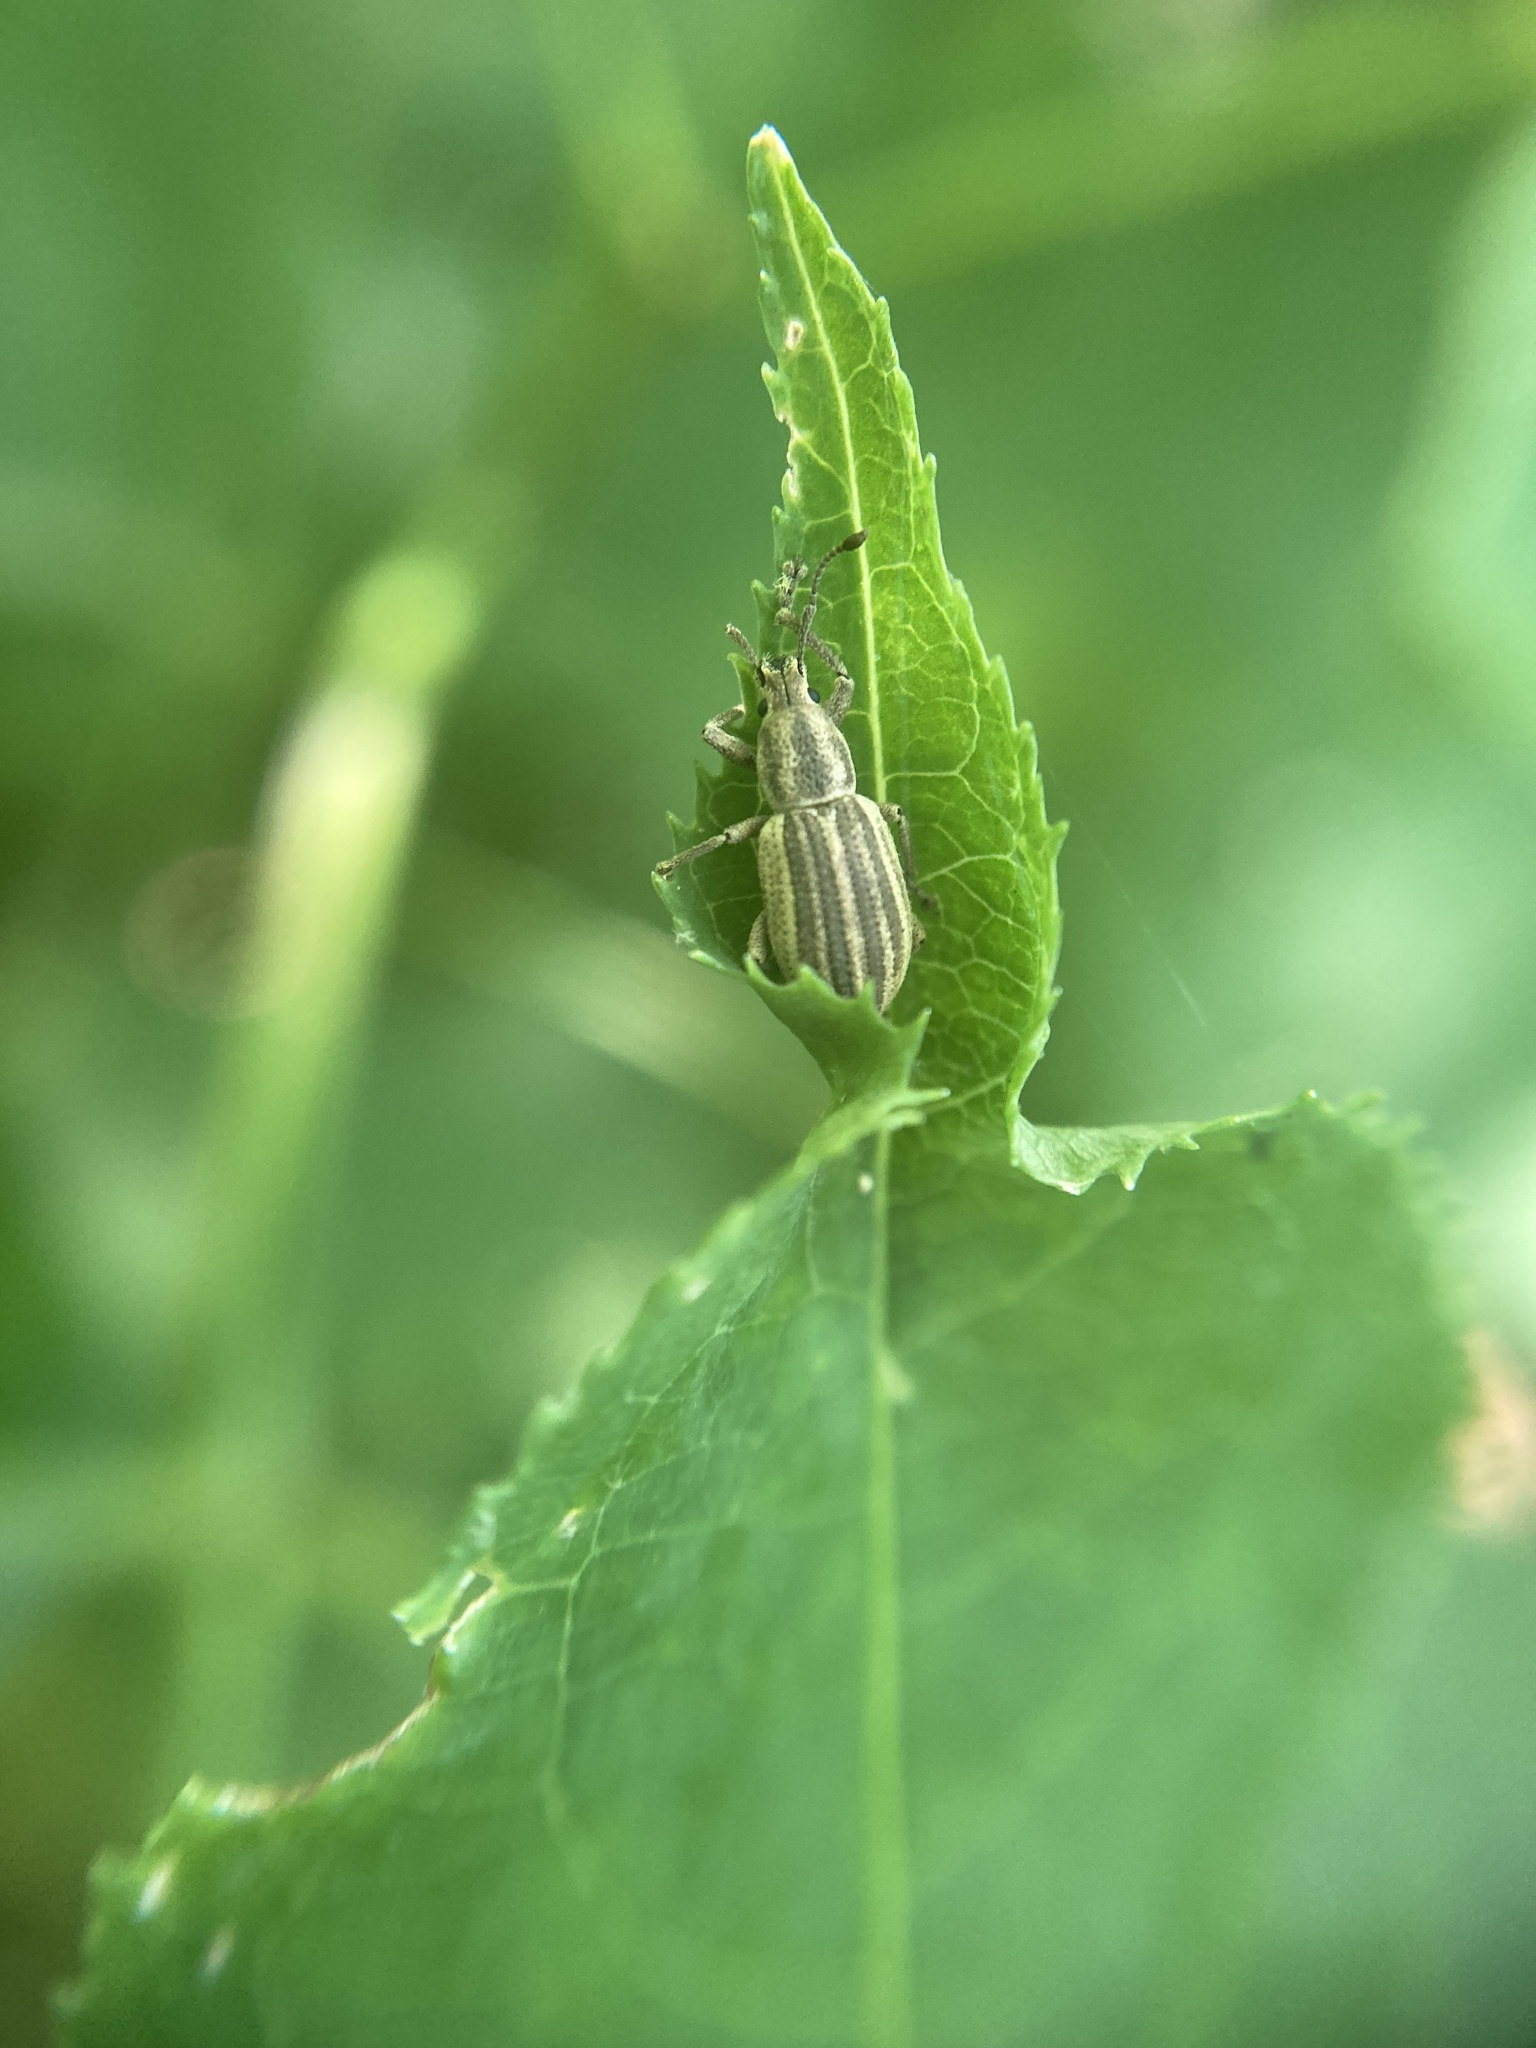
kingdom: Animalia
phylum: Arthropoda
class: Insecta
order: Coleoptera
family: Curculionidae
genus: Aphrastus
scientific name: Aphrastus taeniatus
